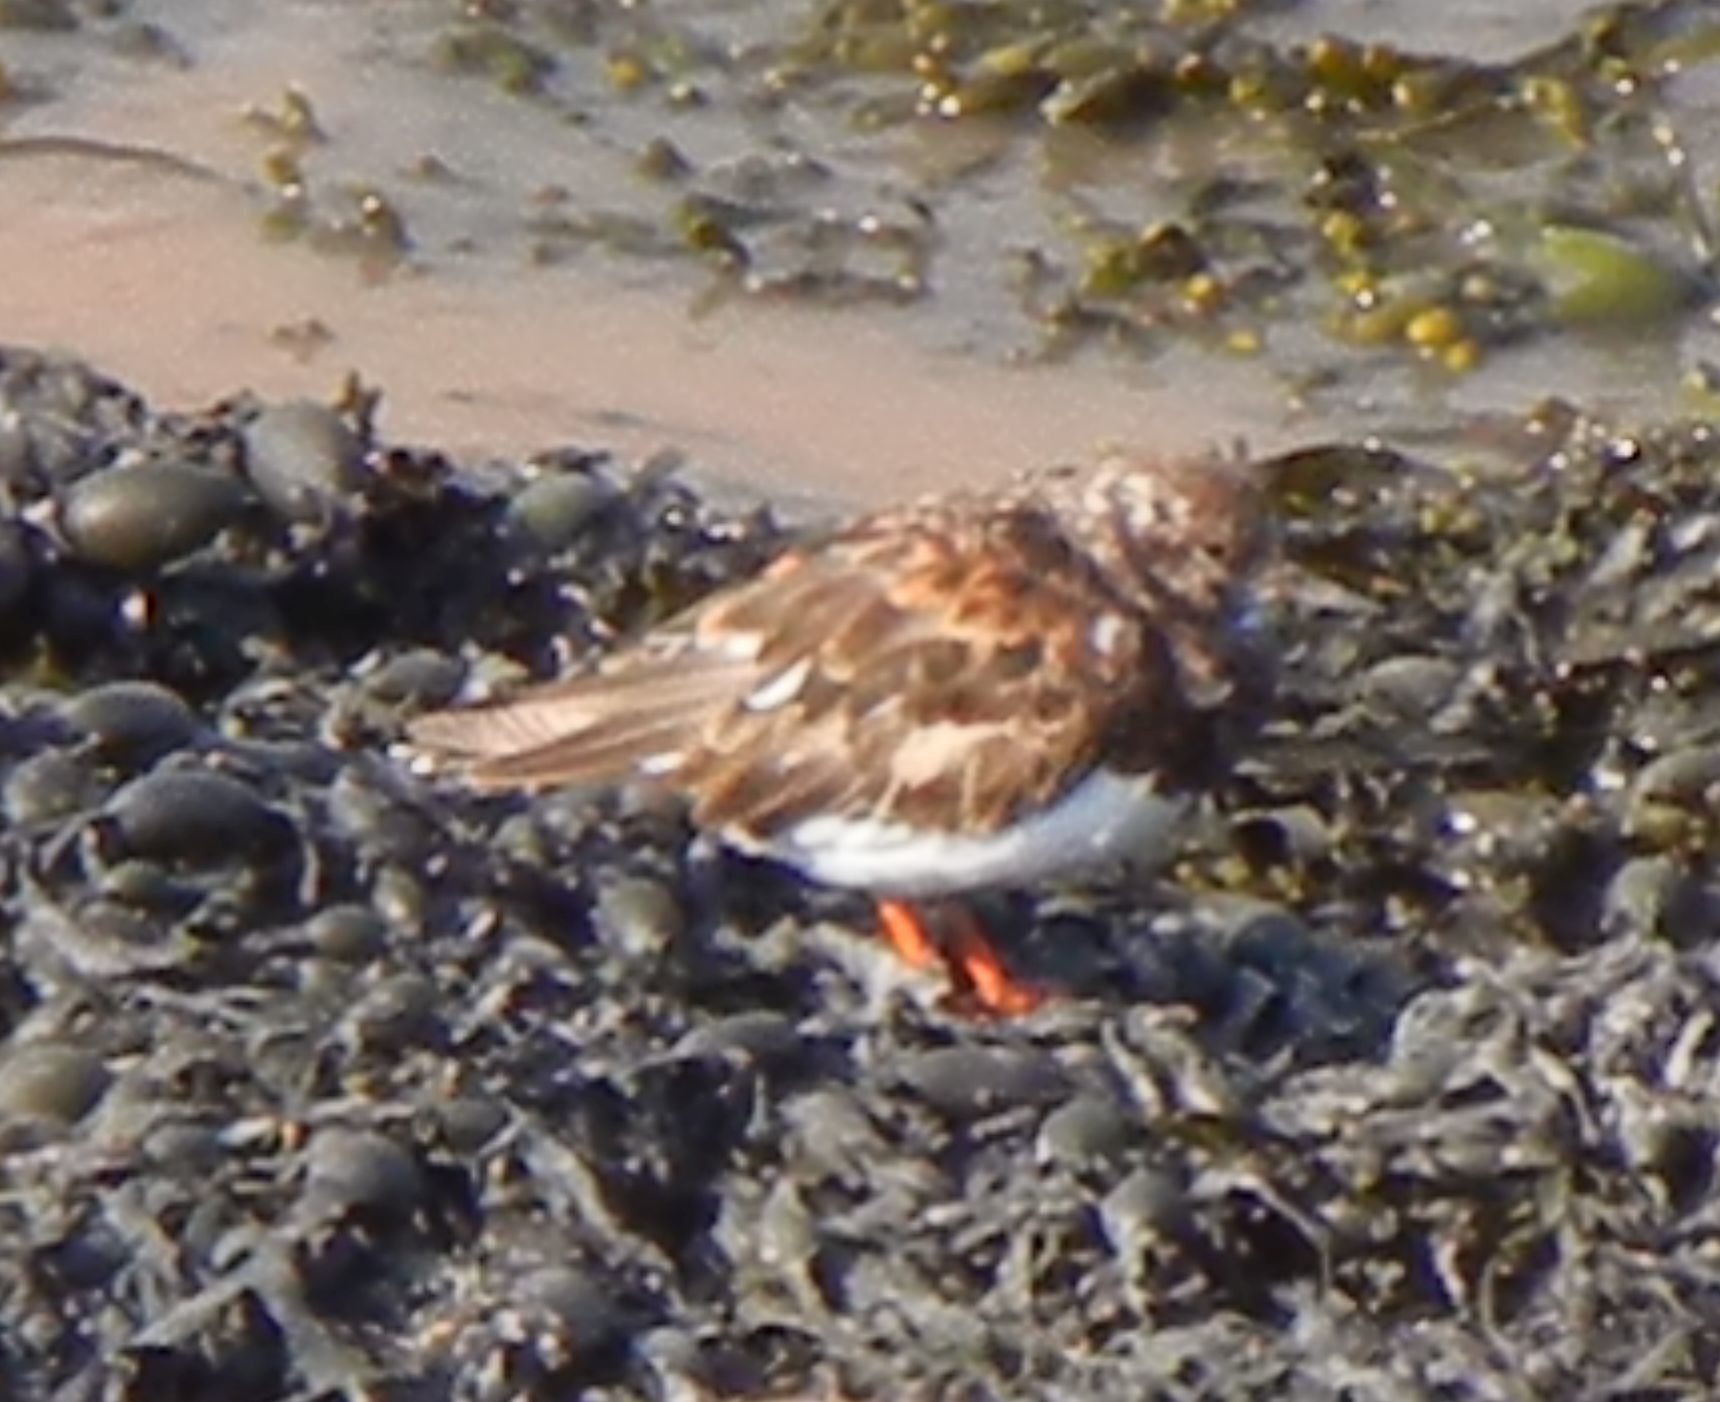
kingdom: Animalia
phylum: Chordata
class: Aves
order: Charadriiformes
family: Scolopacidae
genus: Arenaria
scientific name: Arenaria interpres
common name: Ruddy turnstone
